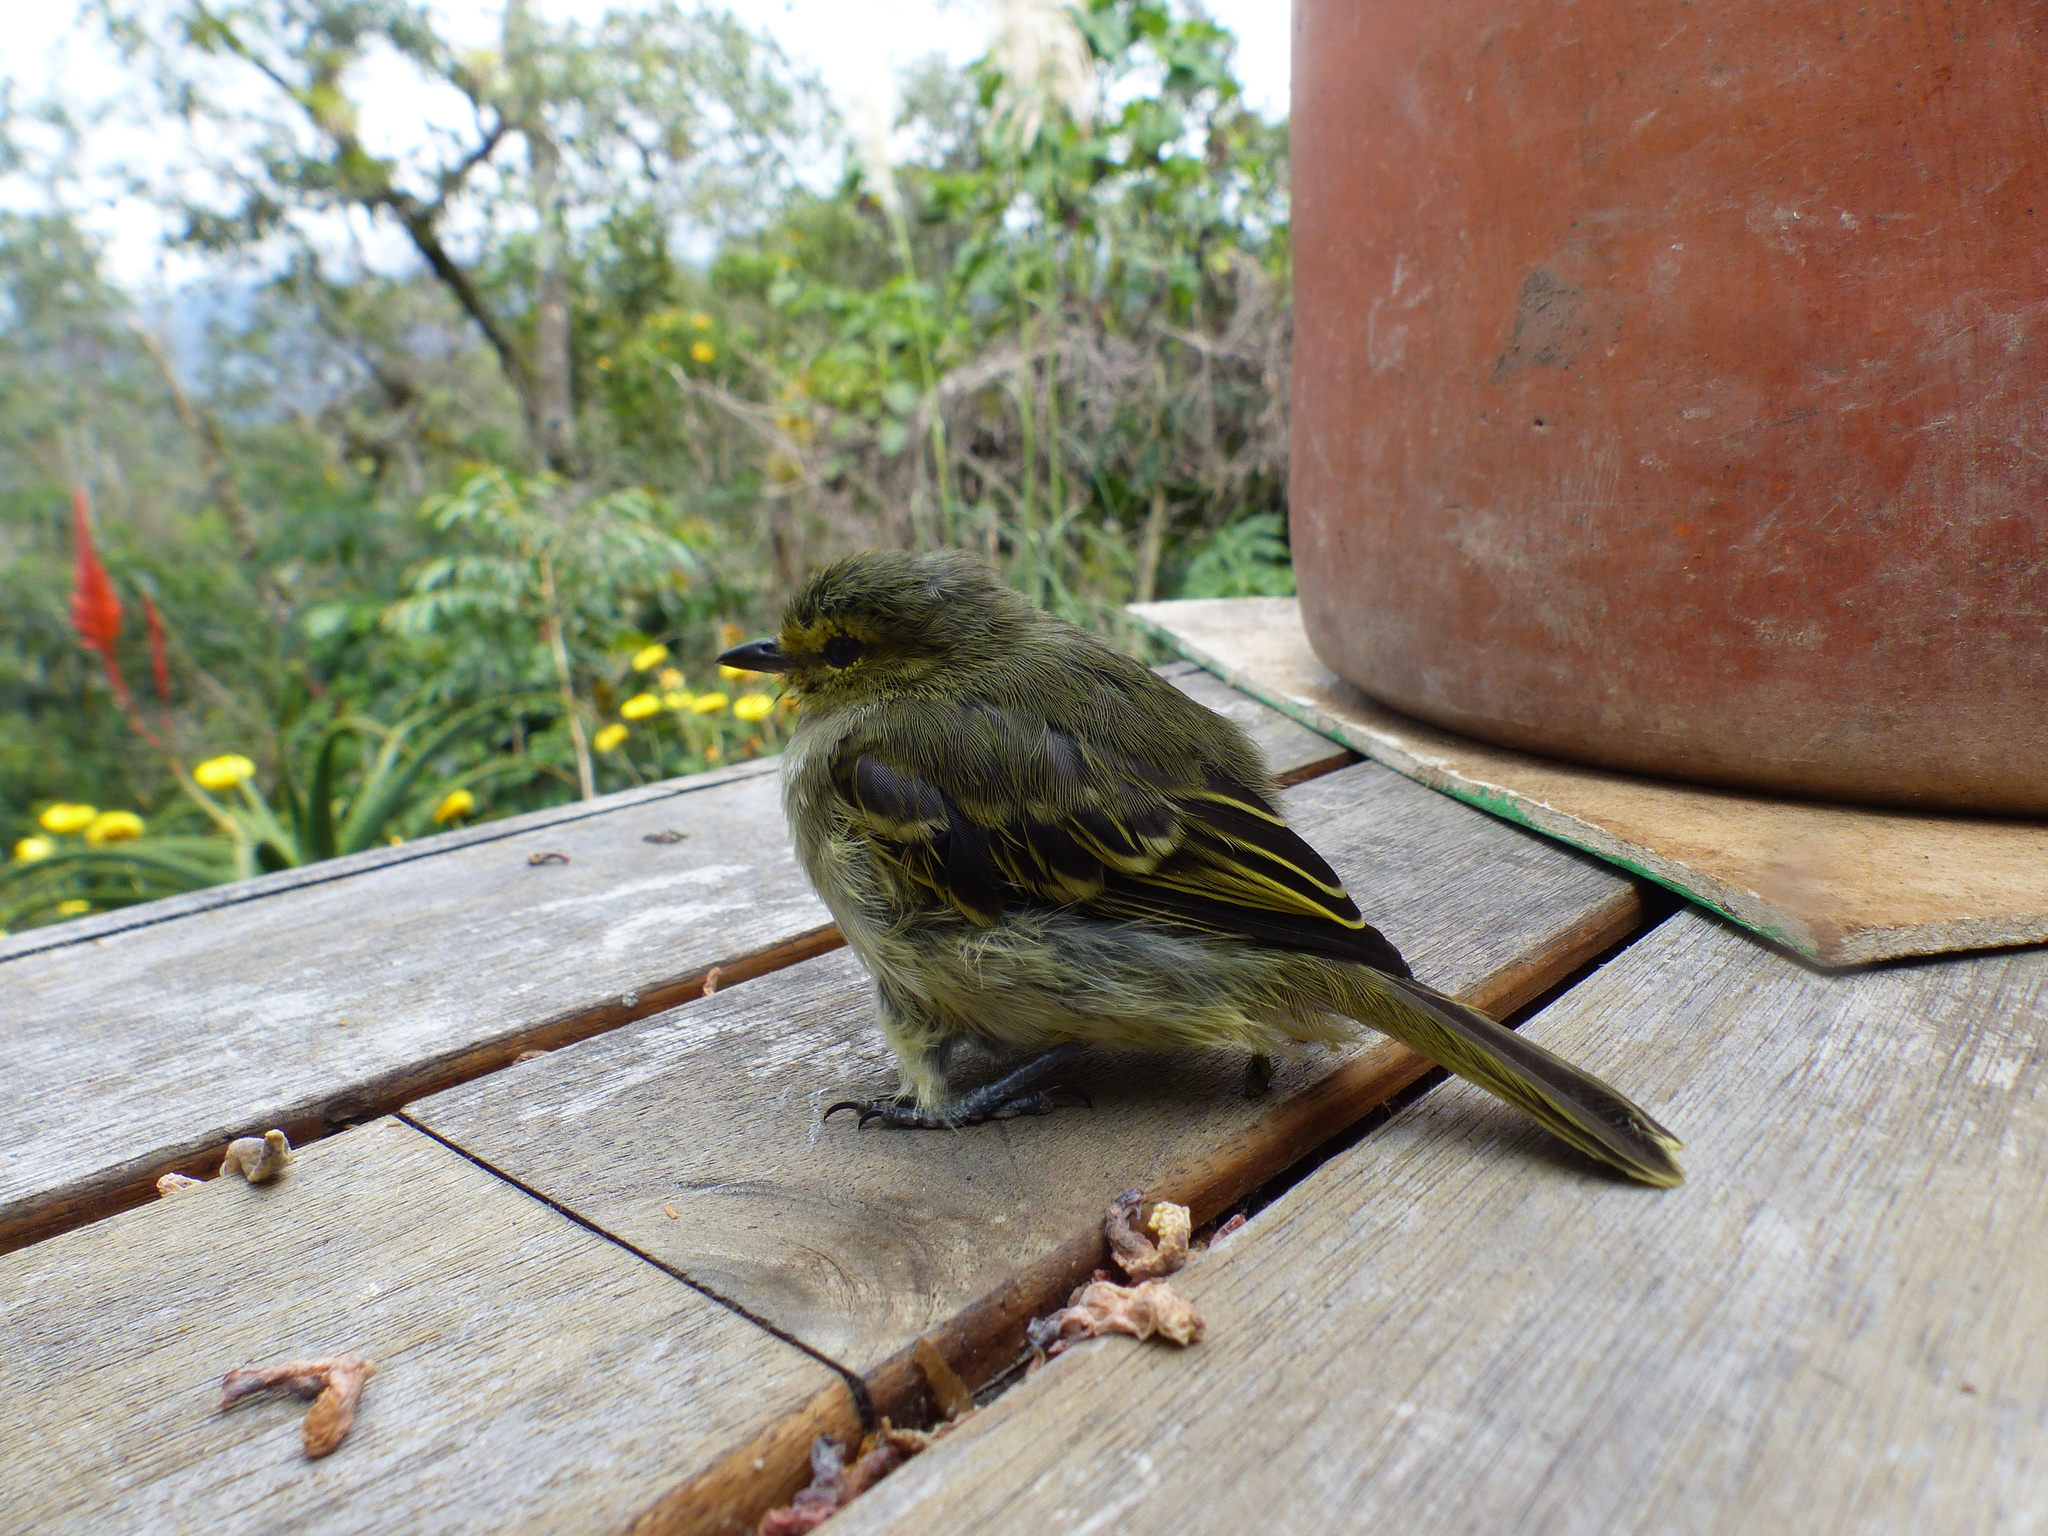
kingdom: Animalia
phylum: Chordata
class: Aves
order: Passeriformes
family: Tyrannidae
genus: Zimmerius
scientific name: Zimmerius chrysops
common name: Golden-faced tyrannulet
